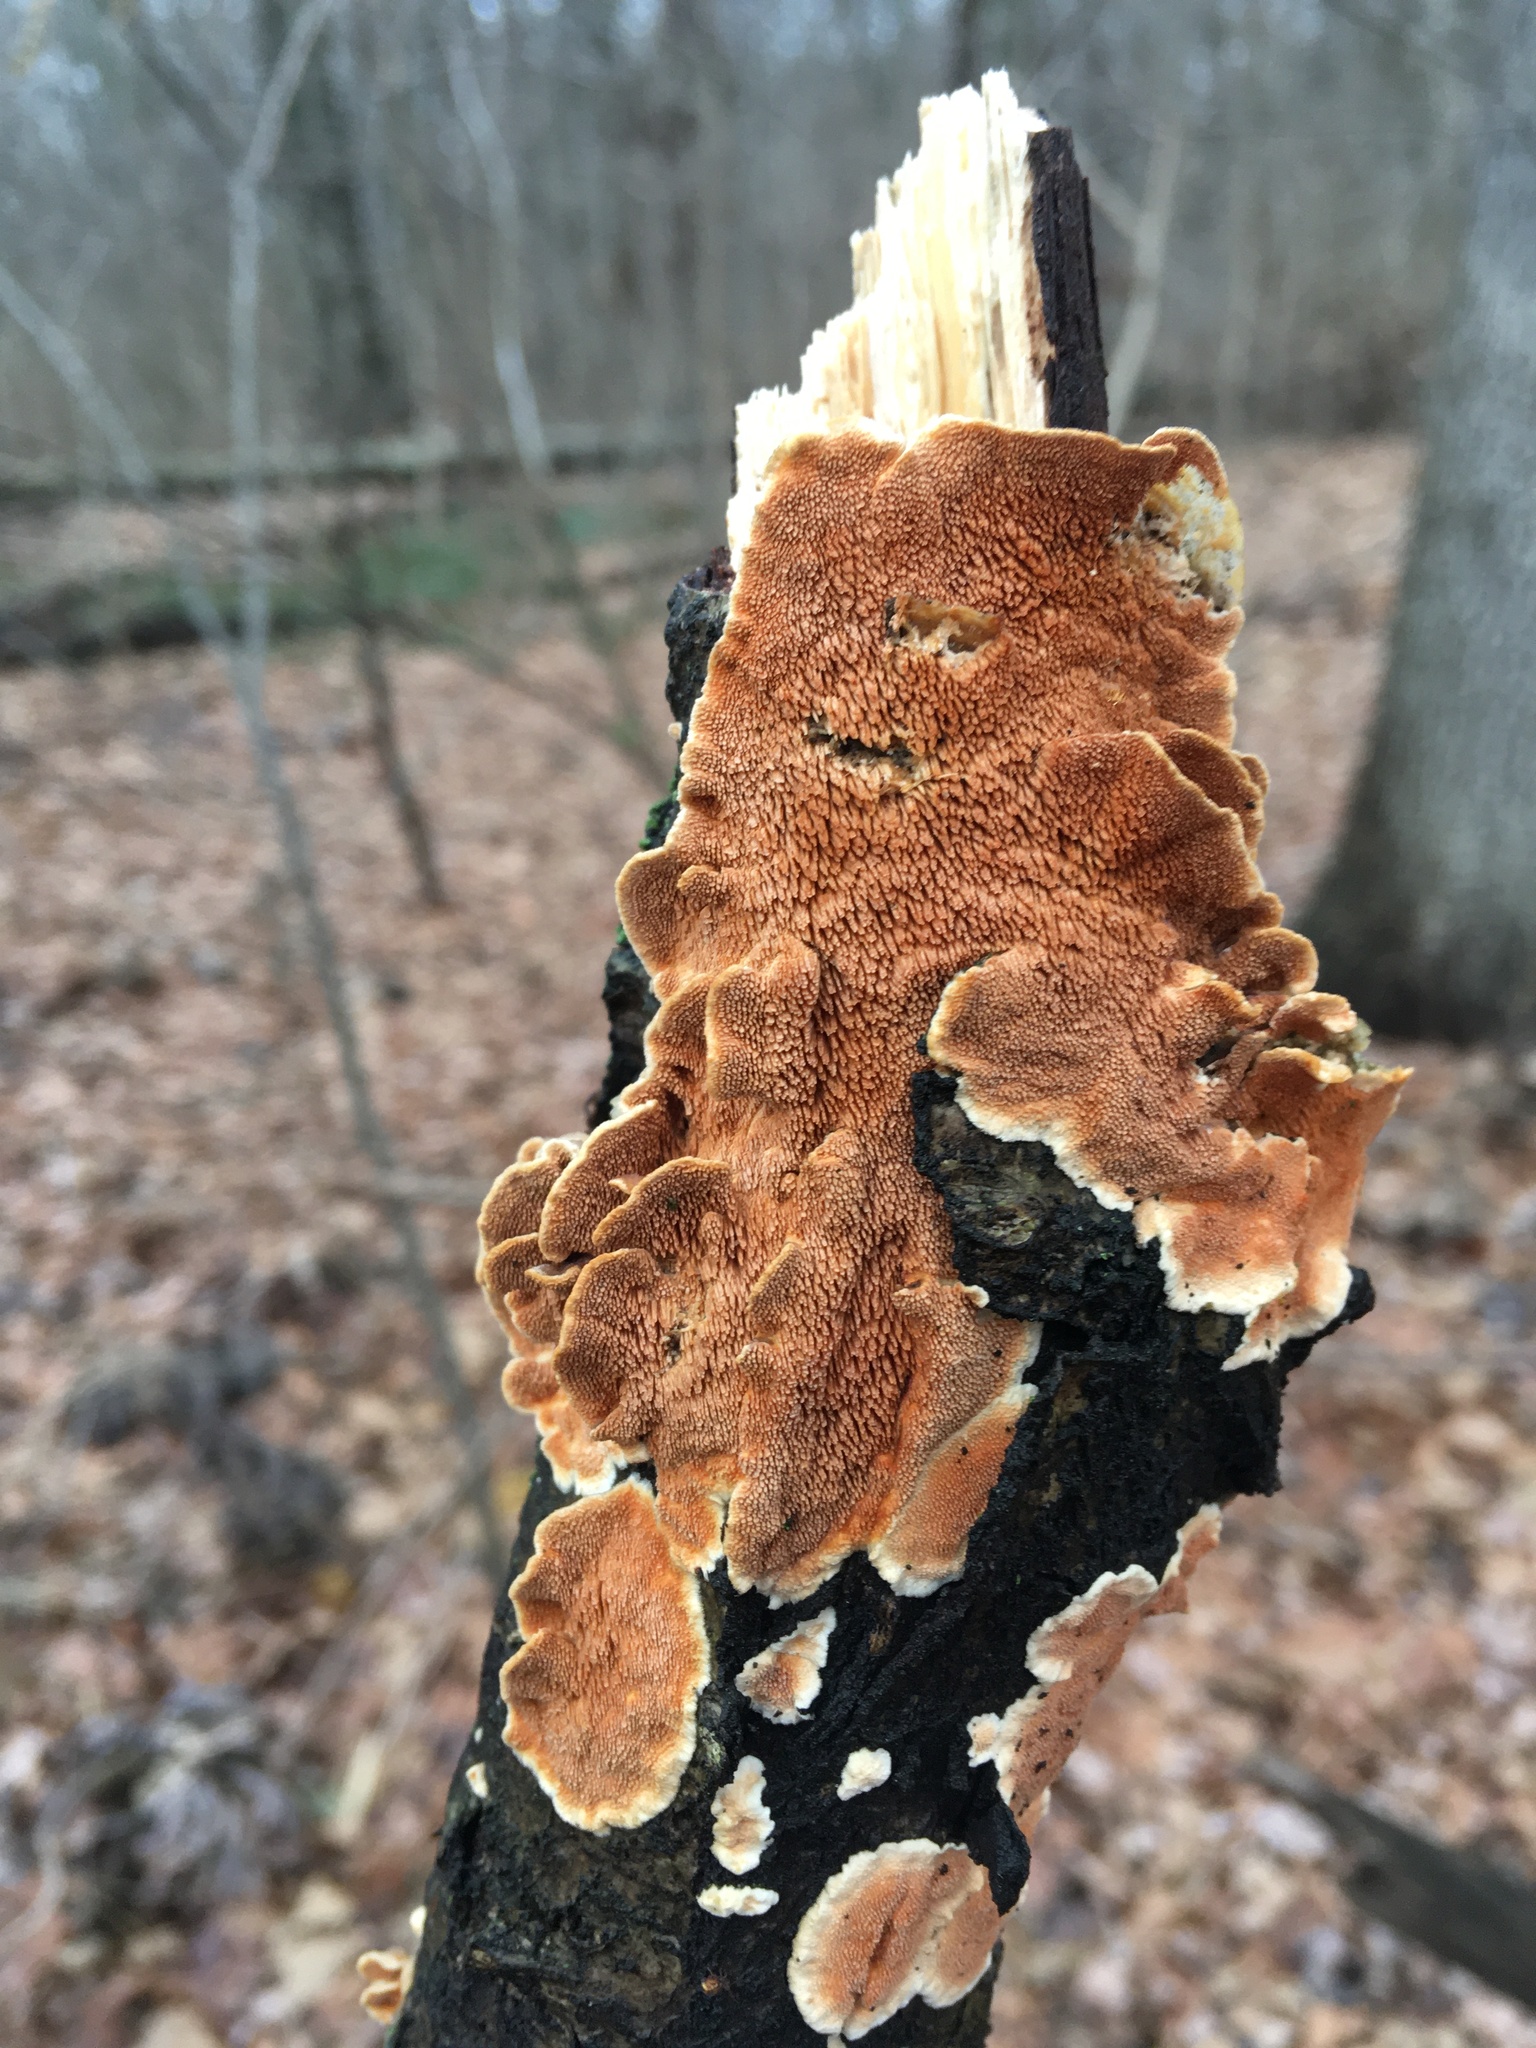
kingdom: Fungi
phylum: Basidiomycota
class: Agaricomycetes
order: Polyporales
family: Steccherinaceae
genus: Steccherinum
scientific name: Steccherinum bourdotii
